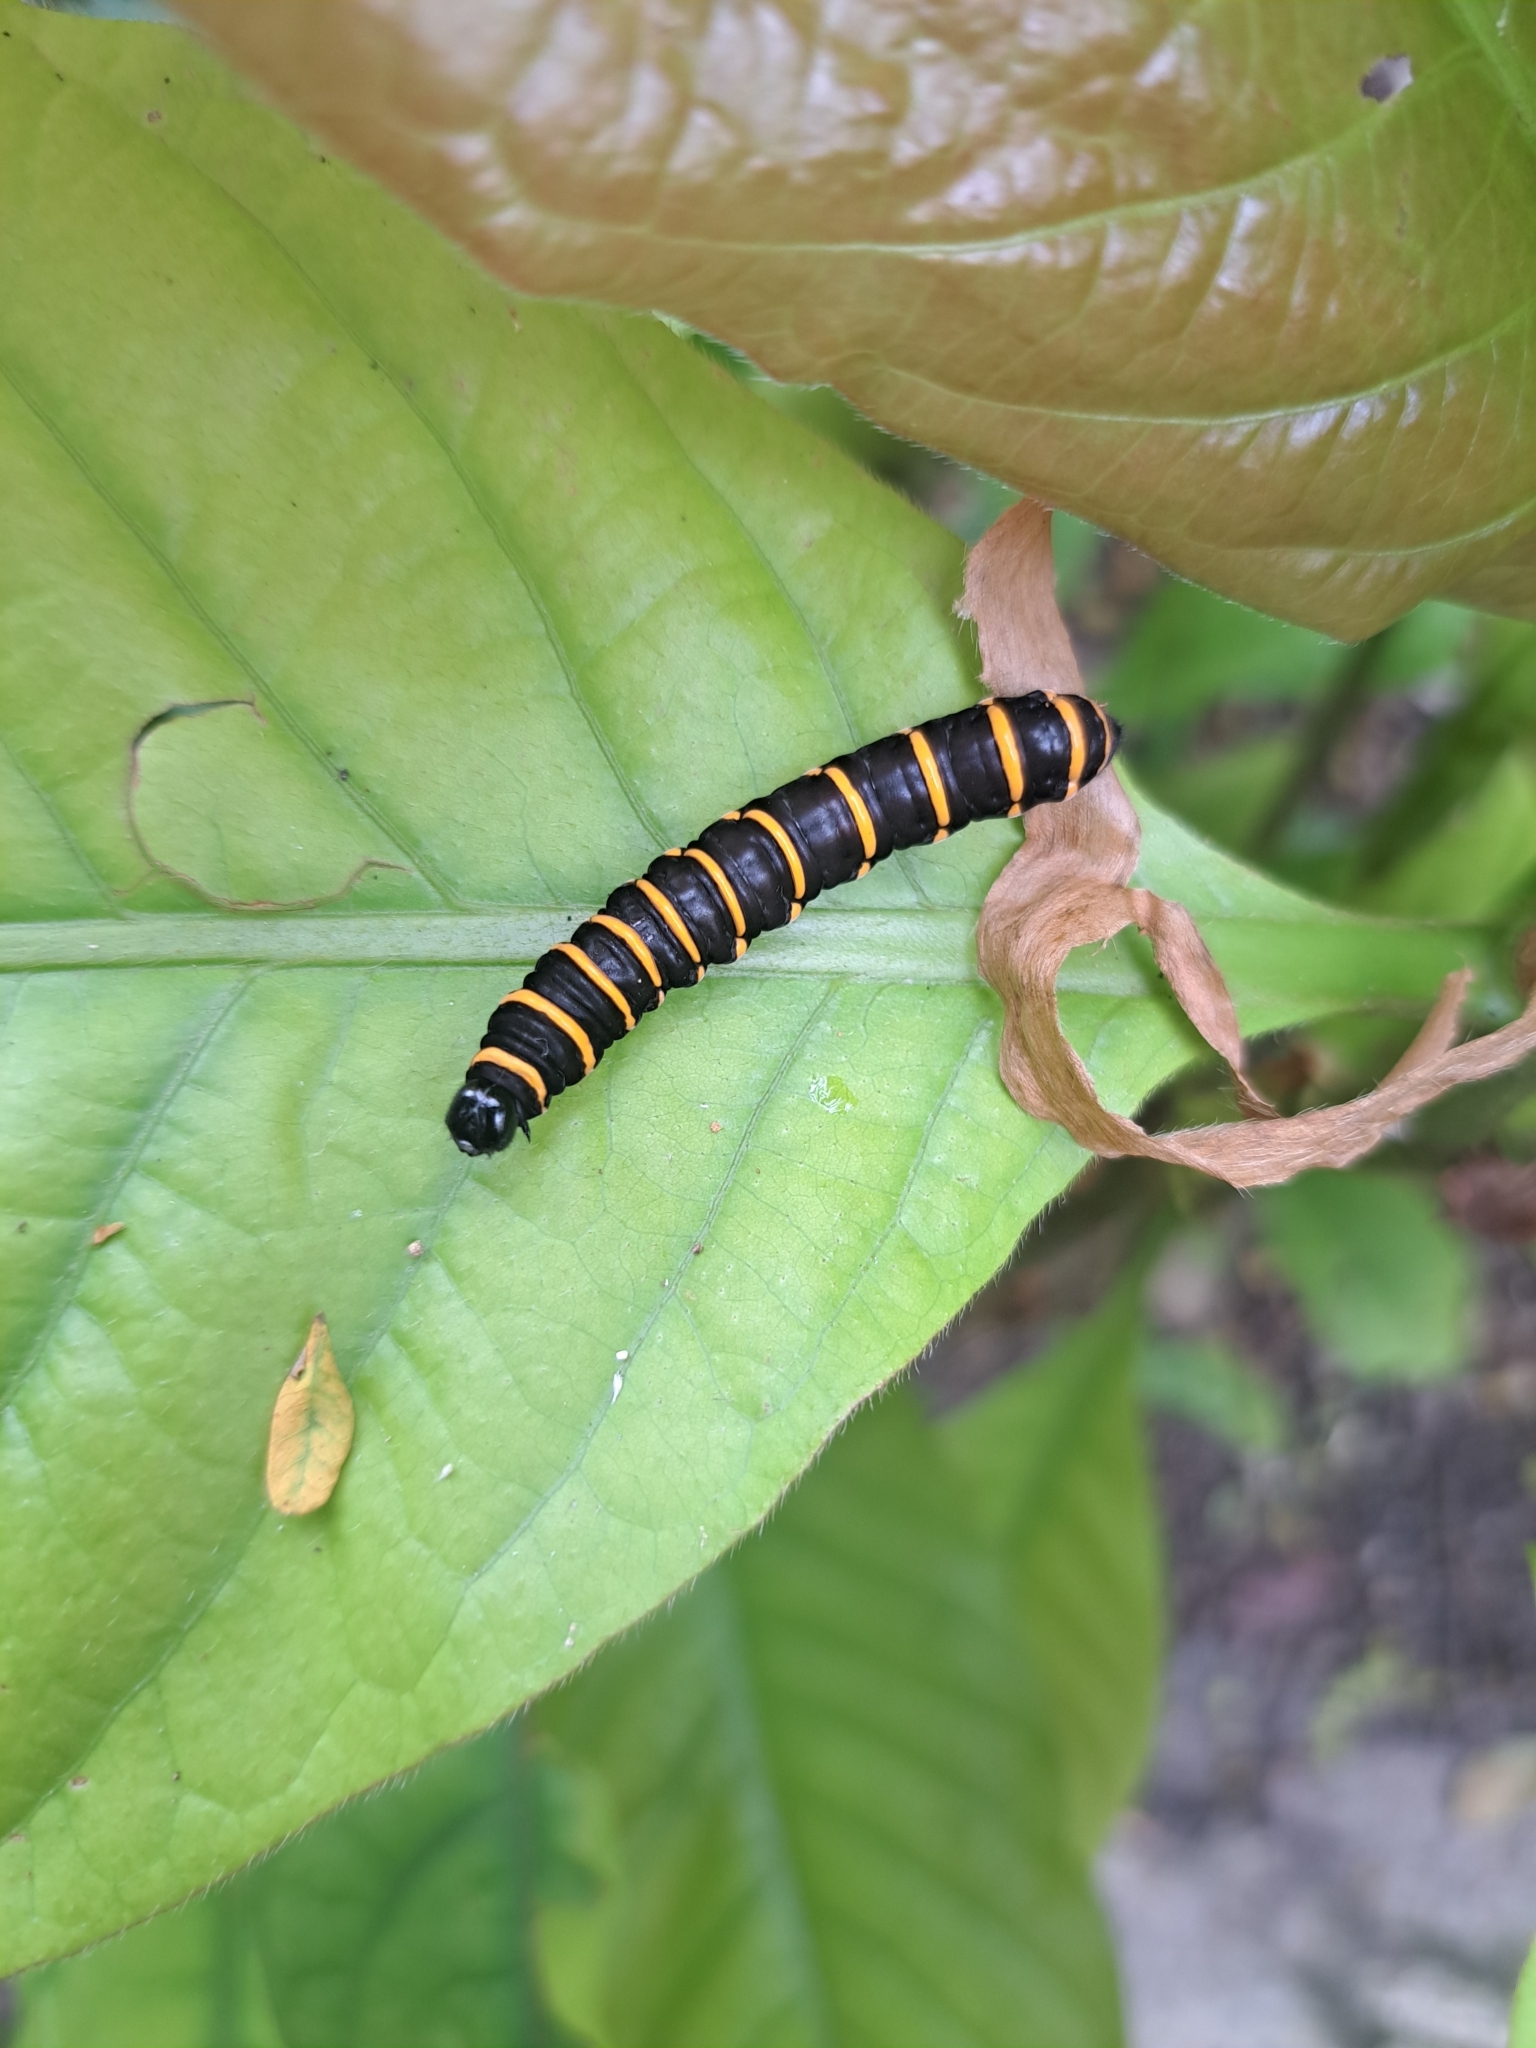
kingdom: Animalia
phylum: Arthropoda
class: Insecta
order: Lepidoptera
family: Nymphalidae
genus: Methona
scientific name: Methona themisto
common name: Themisto amberwing
